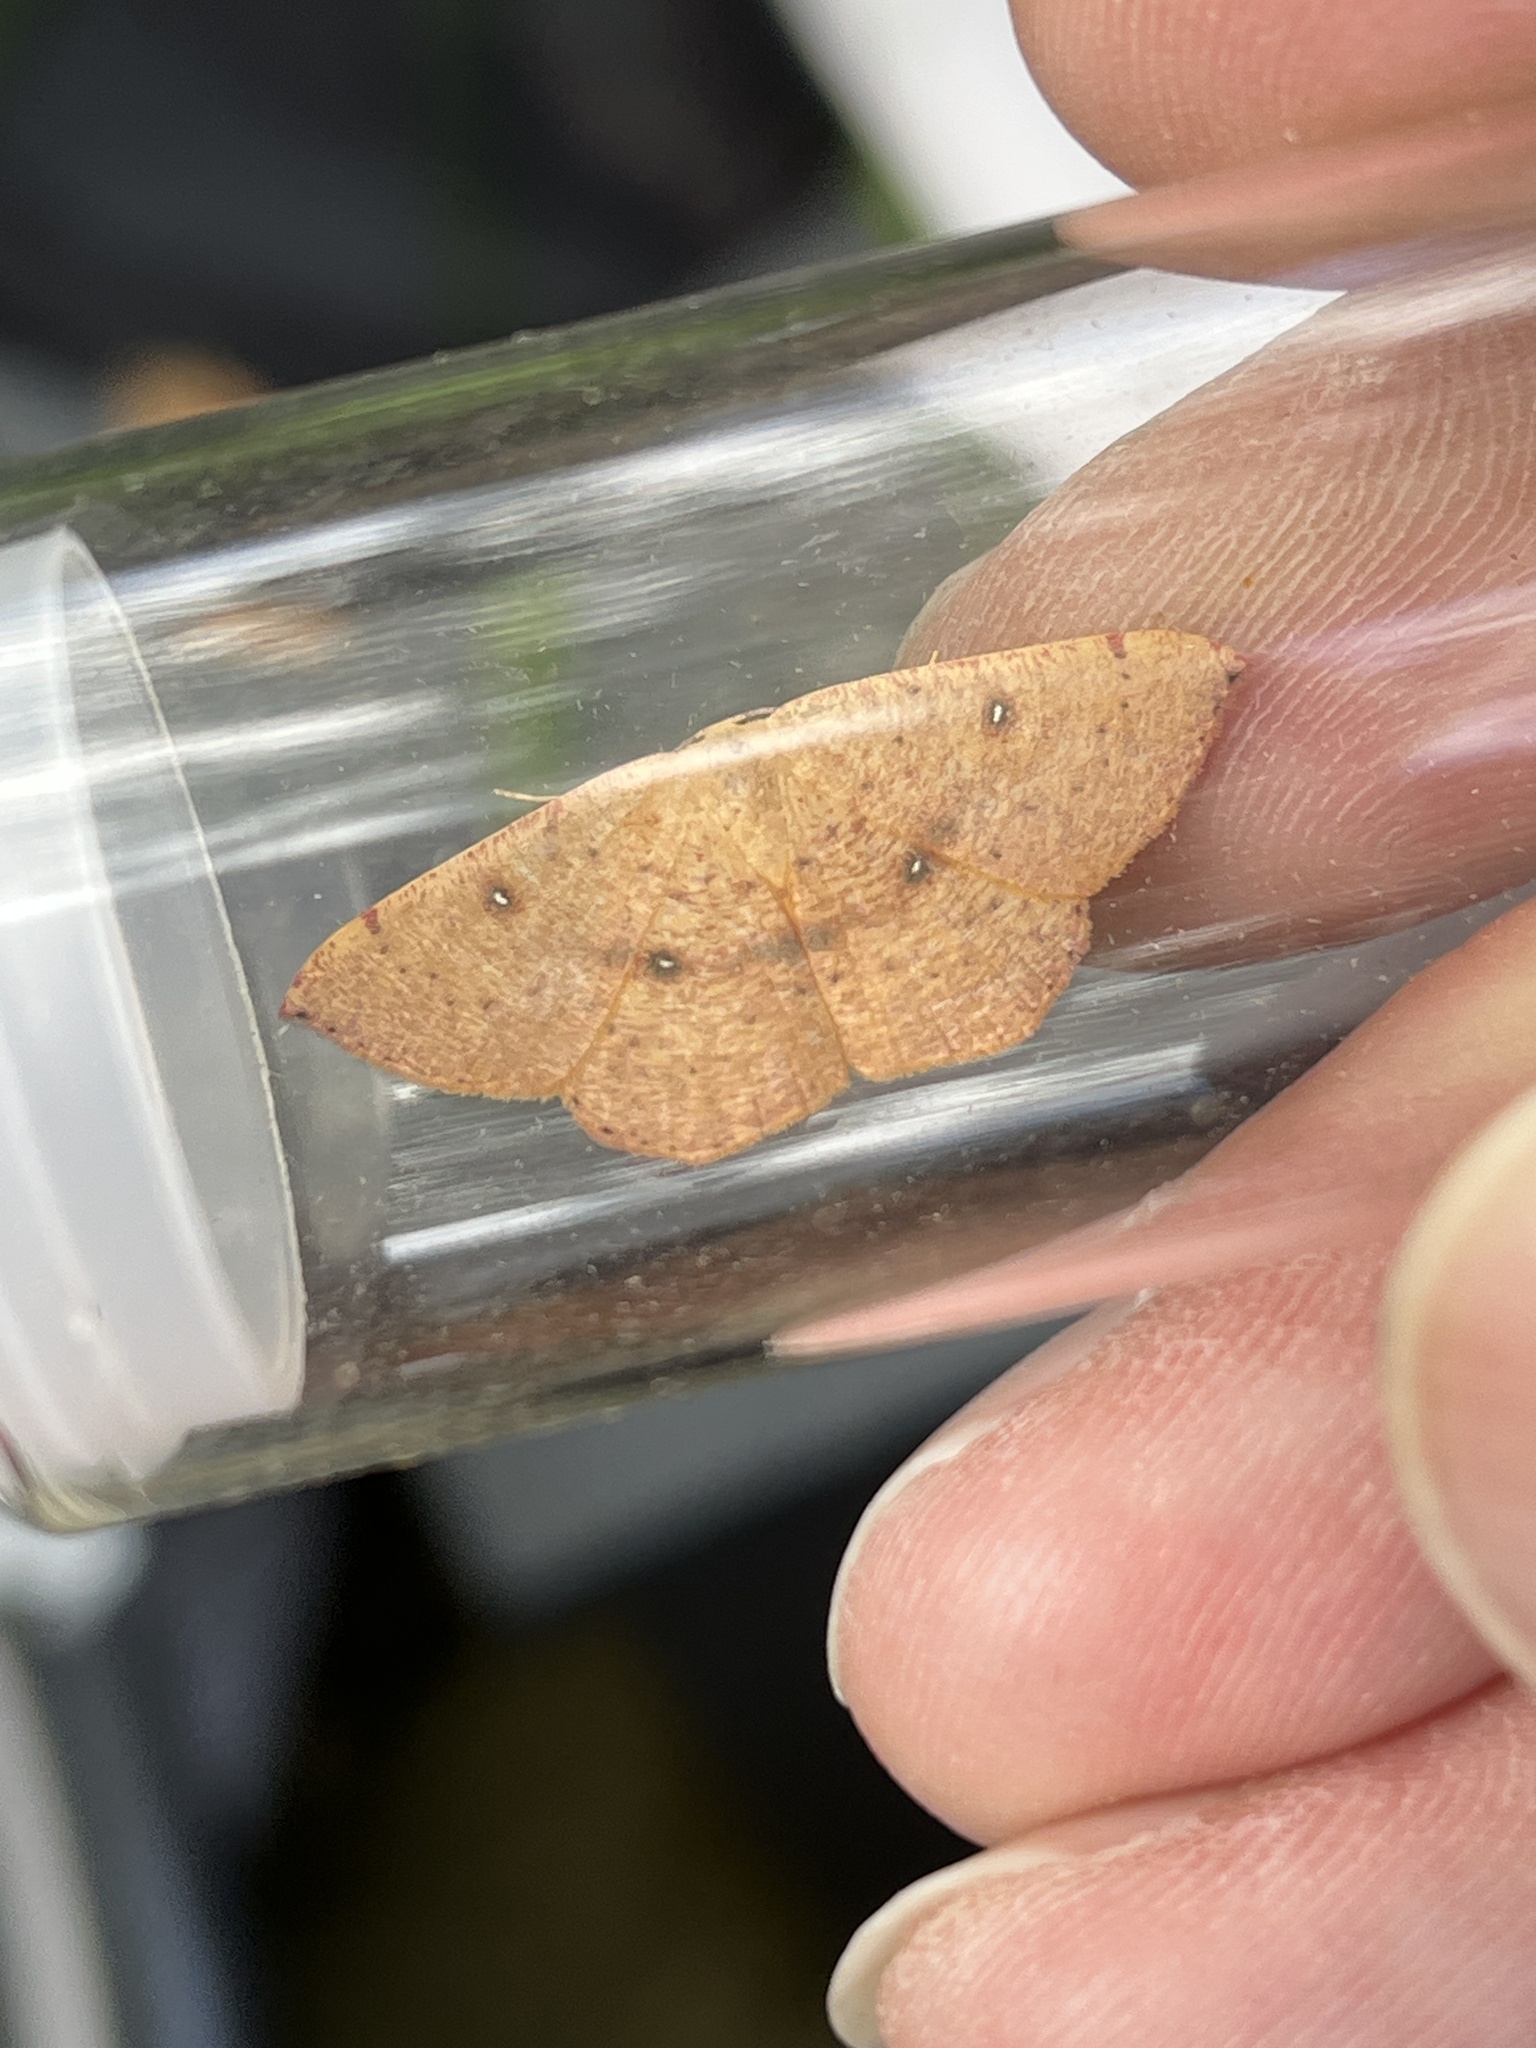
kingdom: Animalia
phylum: Arthropoda
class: Insecta
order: Lepidoptera
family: Geometridae
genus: Cyclophora
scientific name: Cyclophora puppillaria
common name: Blair's mocha
